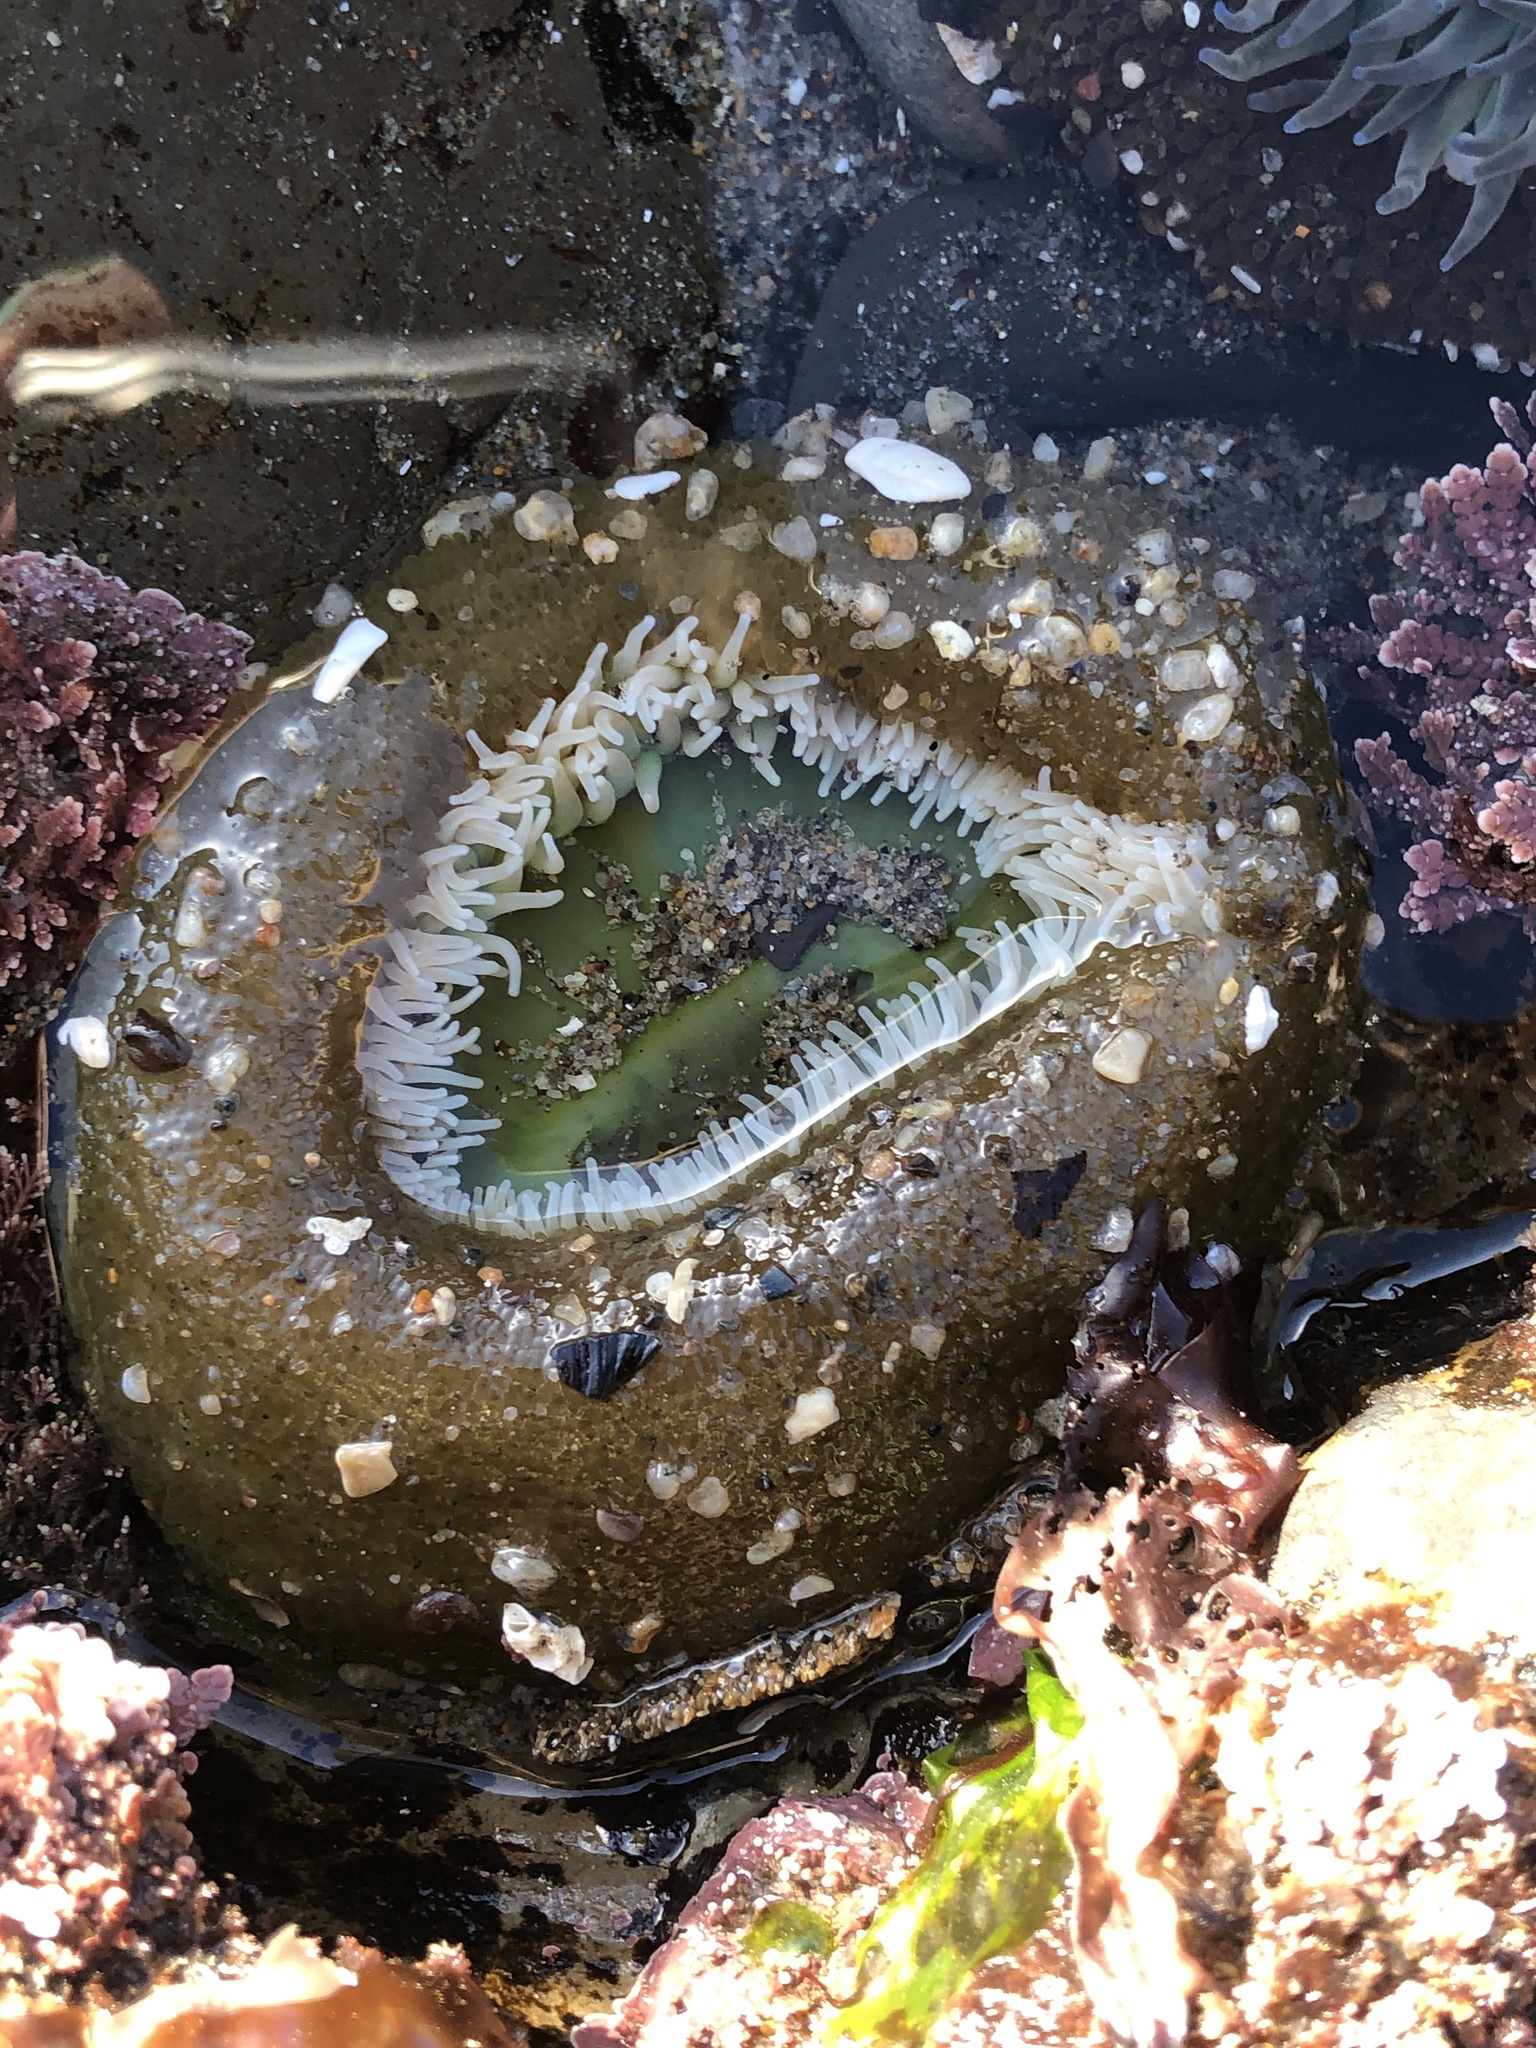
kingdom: Animalia
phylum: Cnidaria
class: Anthozoa
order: Actiniaria
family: Actiniidae
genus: Anthopleura
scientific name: Anthopleura xanthogrammica
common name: Giant green anemone
